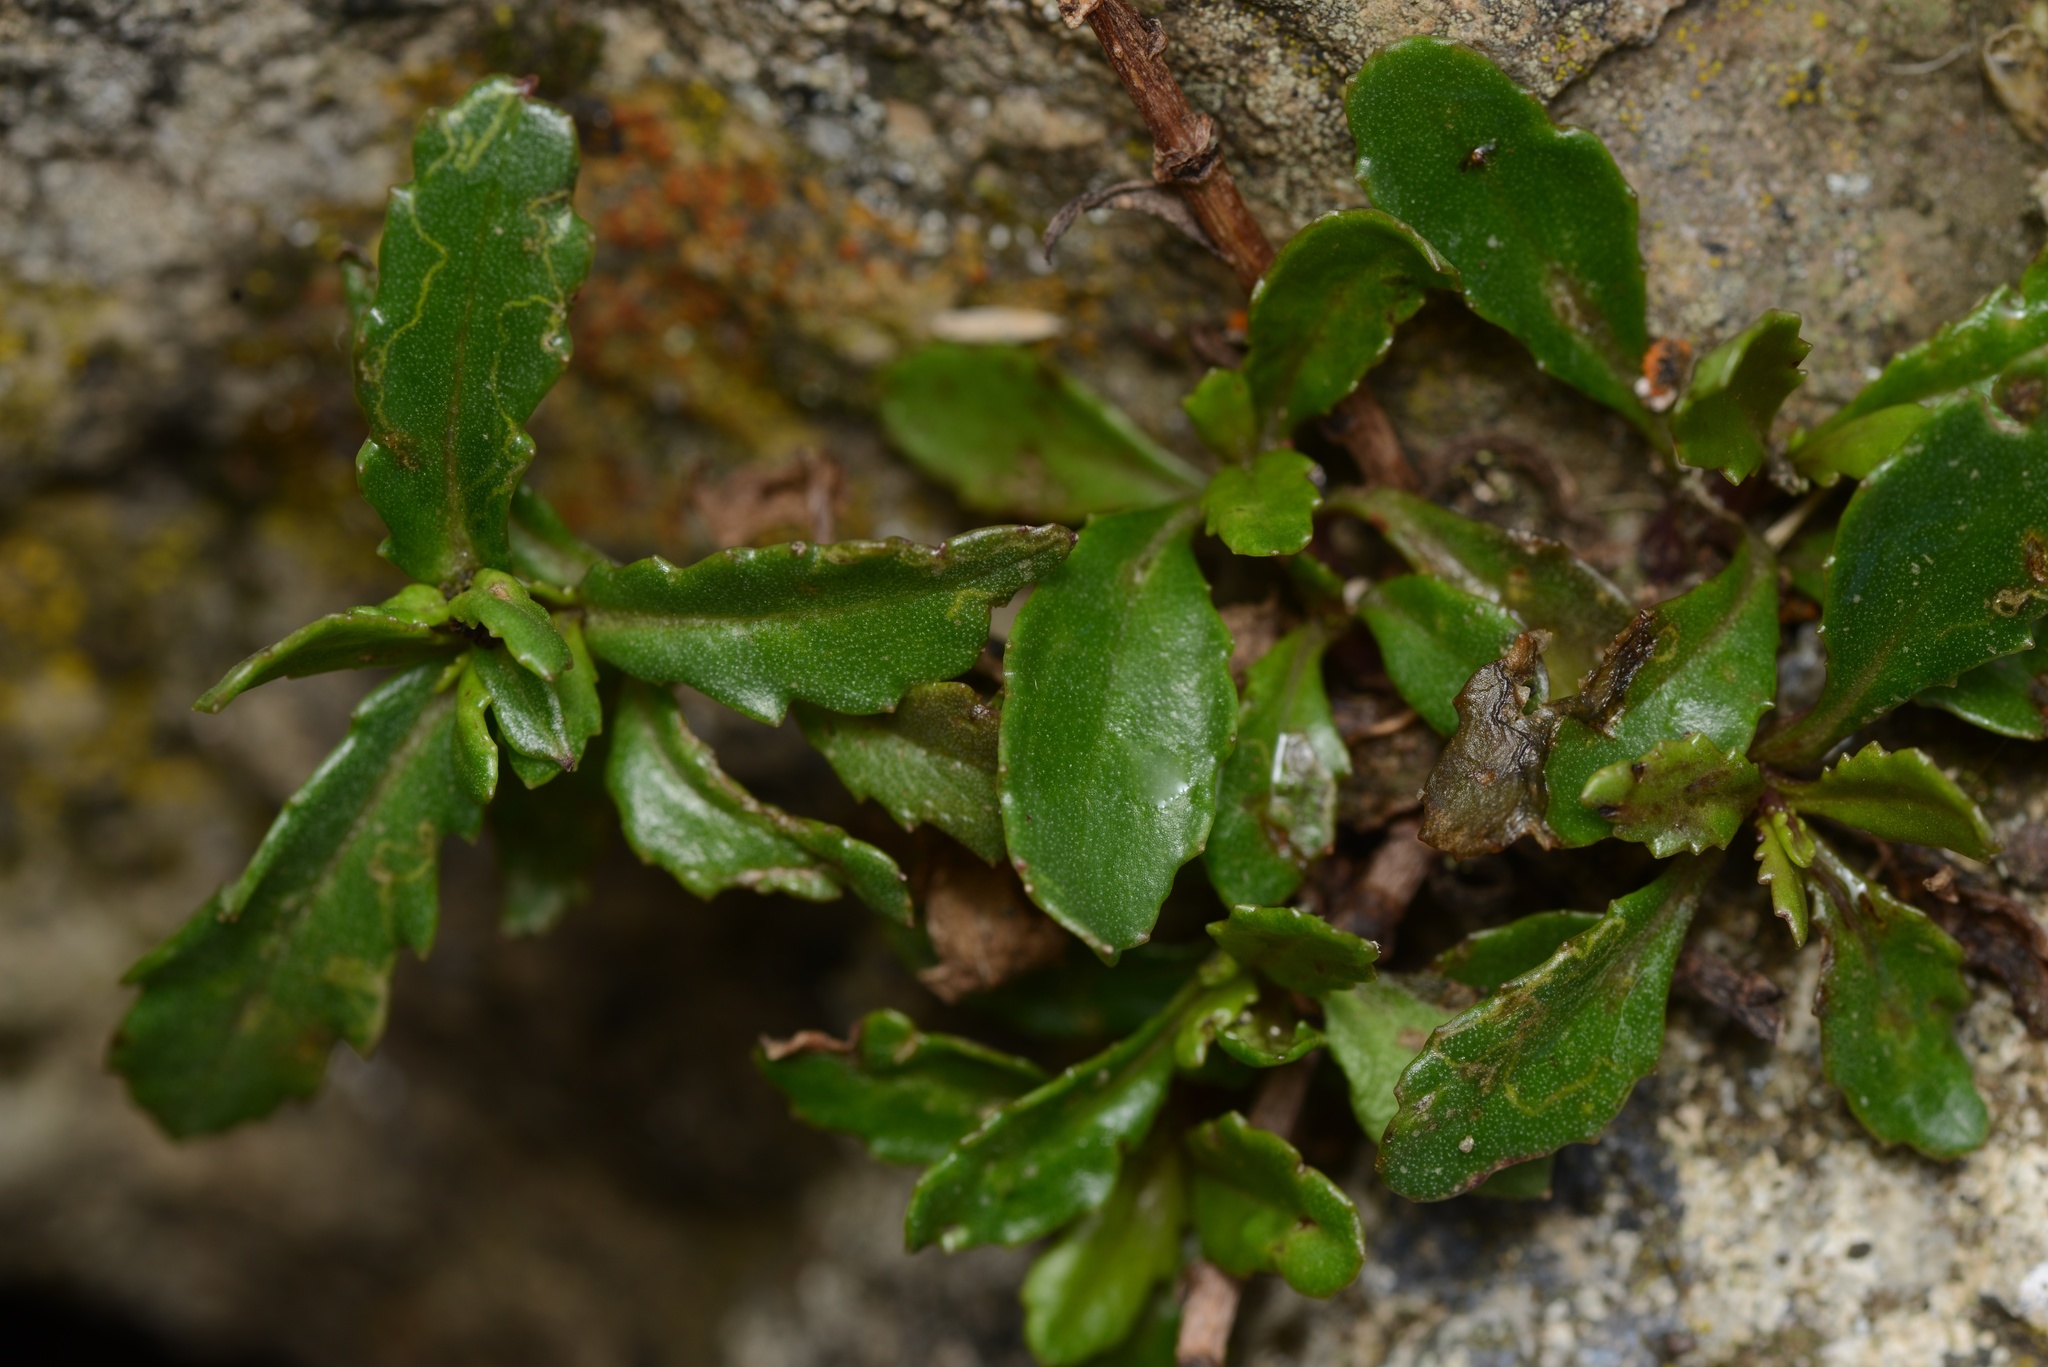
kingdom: Plantae
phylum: Tracheophyta
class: Magnoliopsida
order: Asterales
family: Asteraceae
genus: Senecio
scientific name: Senecio matatini
